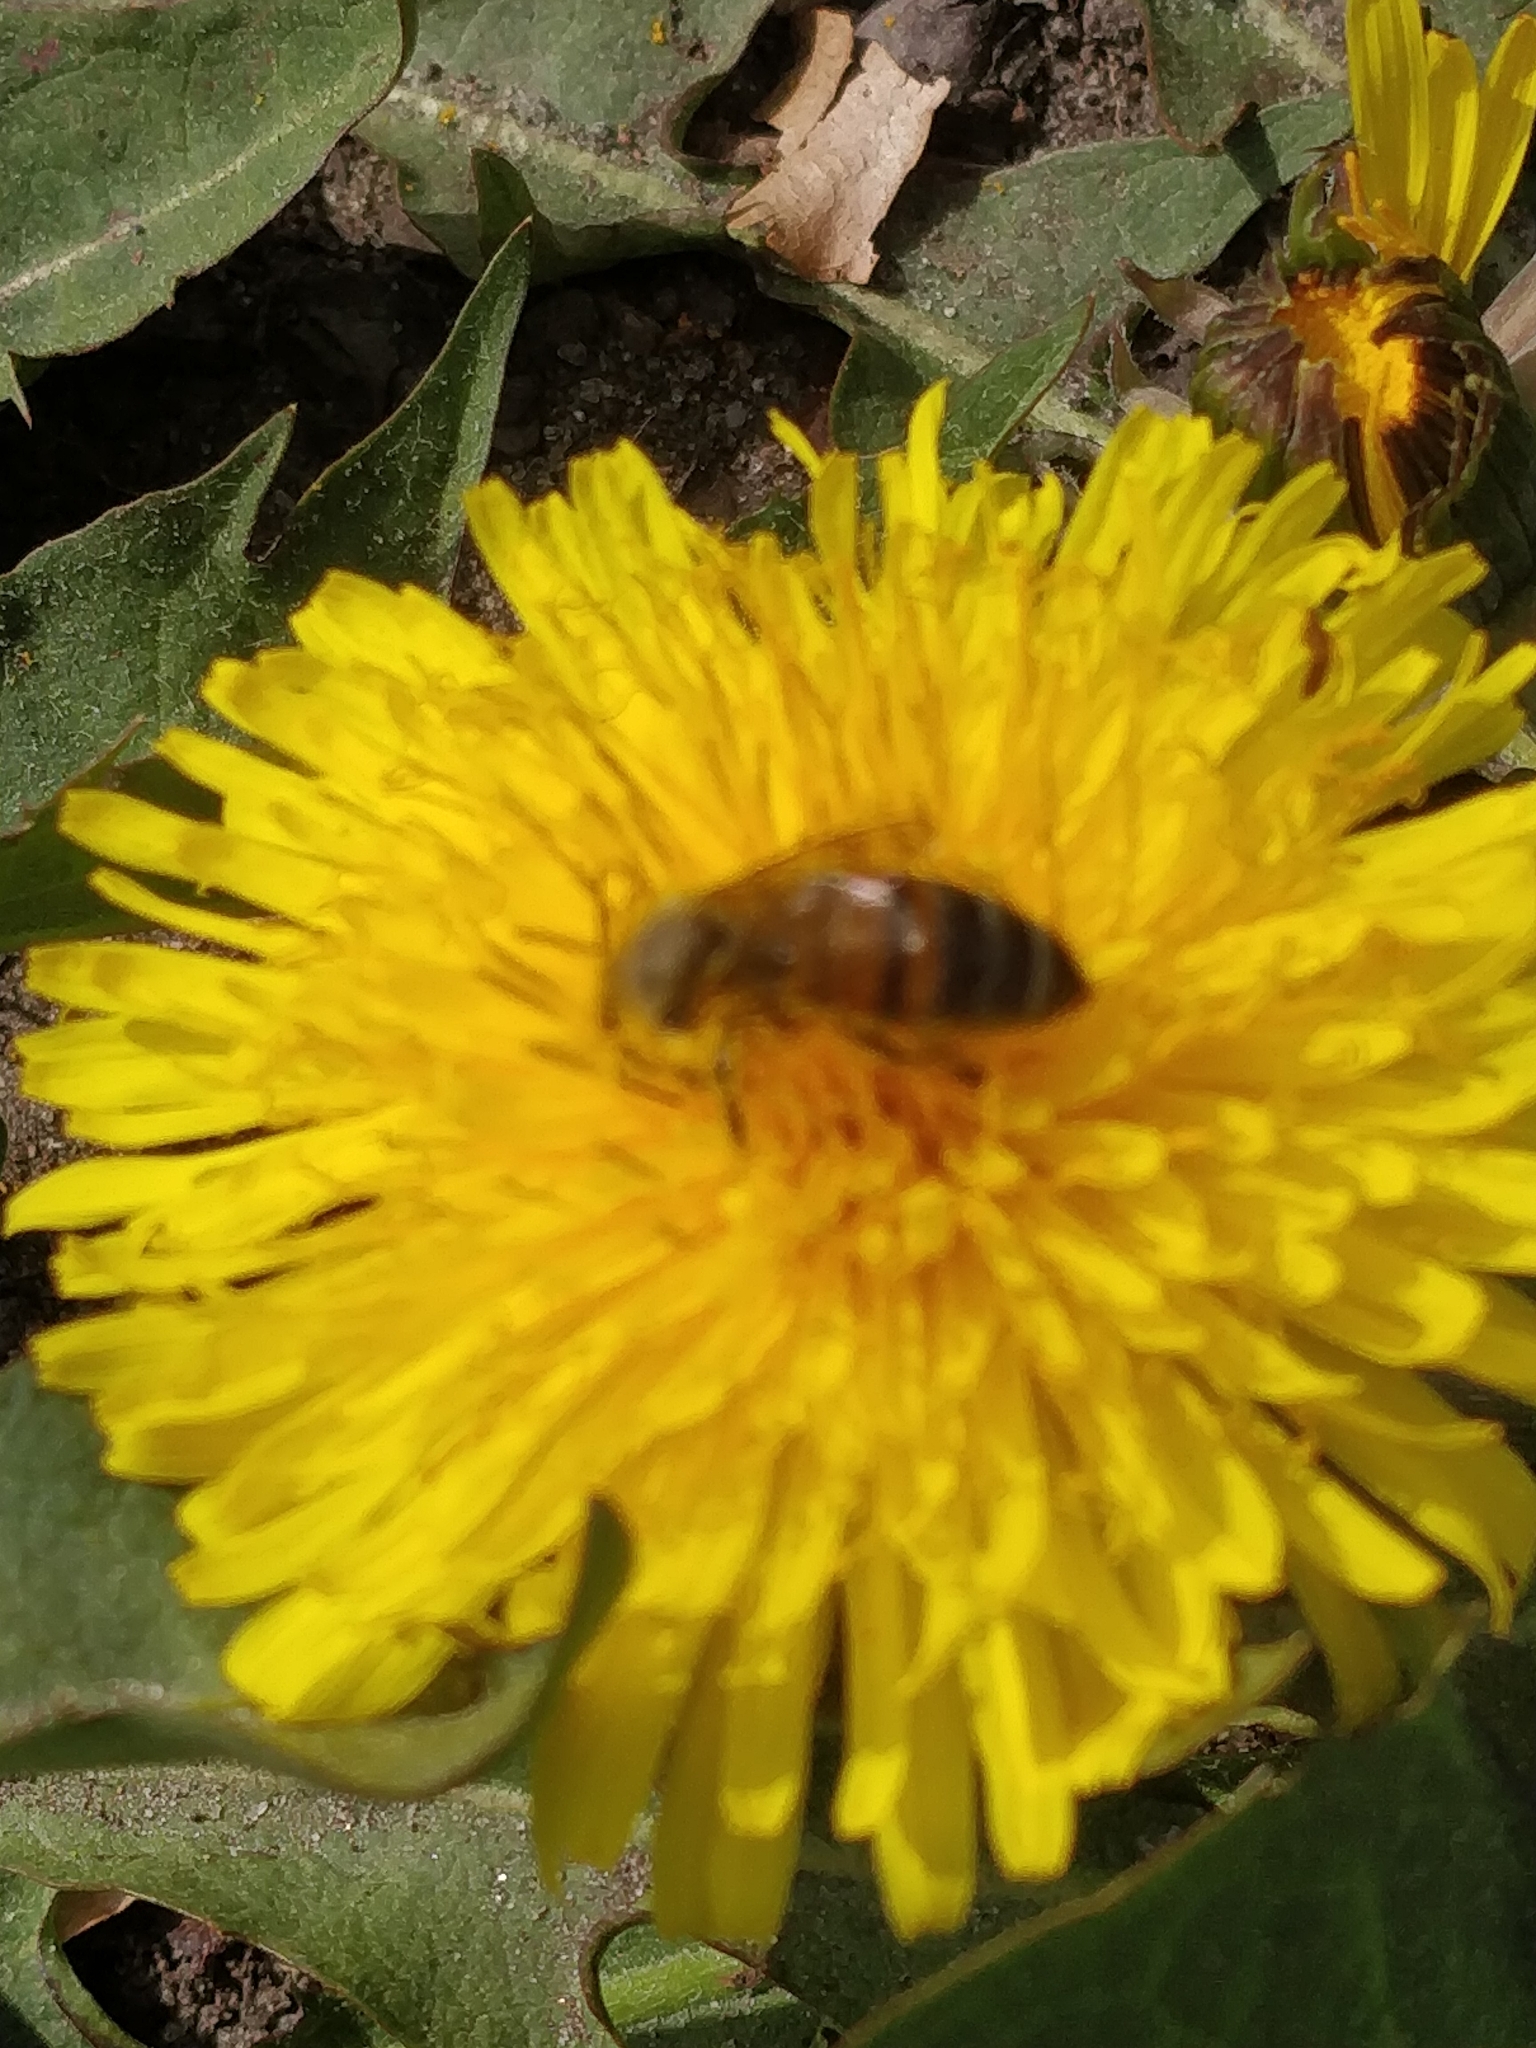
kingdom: Animalia
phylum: Arthropoda
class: Insecta
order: Hymenoptera
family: Apidae
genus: Apis
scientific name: Apis mellifera
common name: Honey bee
